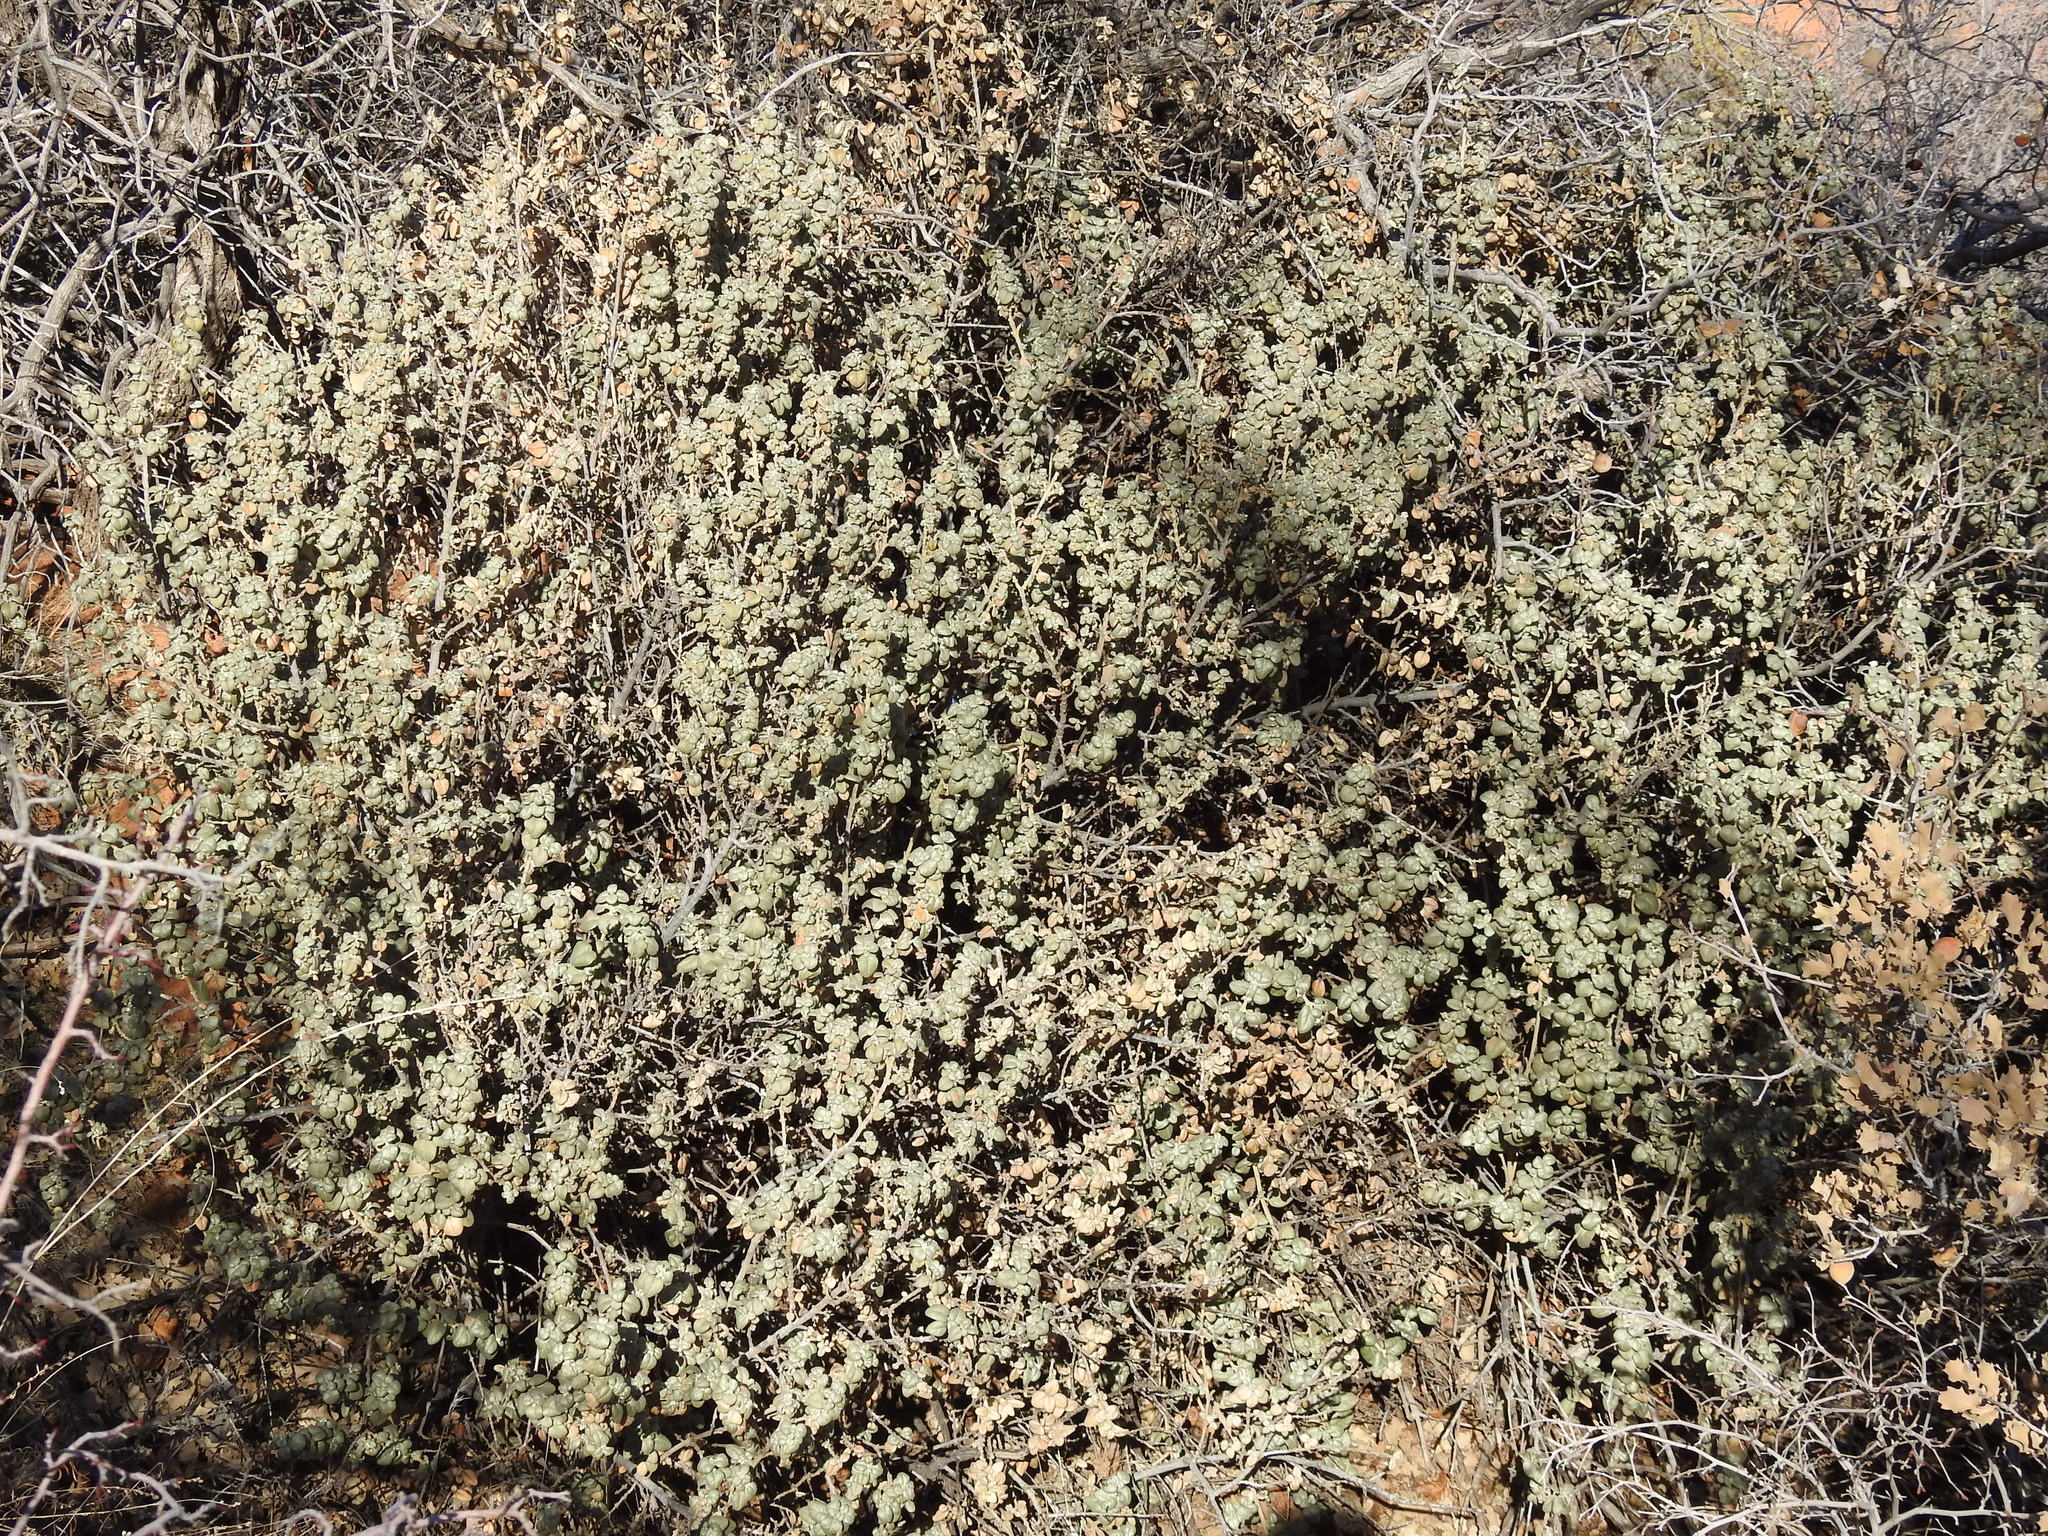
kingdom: Plantae
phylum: Tracheophyta
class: Magnoliopsida
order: Rosales
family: Elaeagnaceae
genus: Shepherdia
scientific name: Shepherdia rotundifolia
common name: Silverscale
